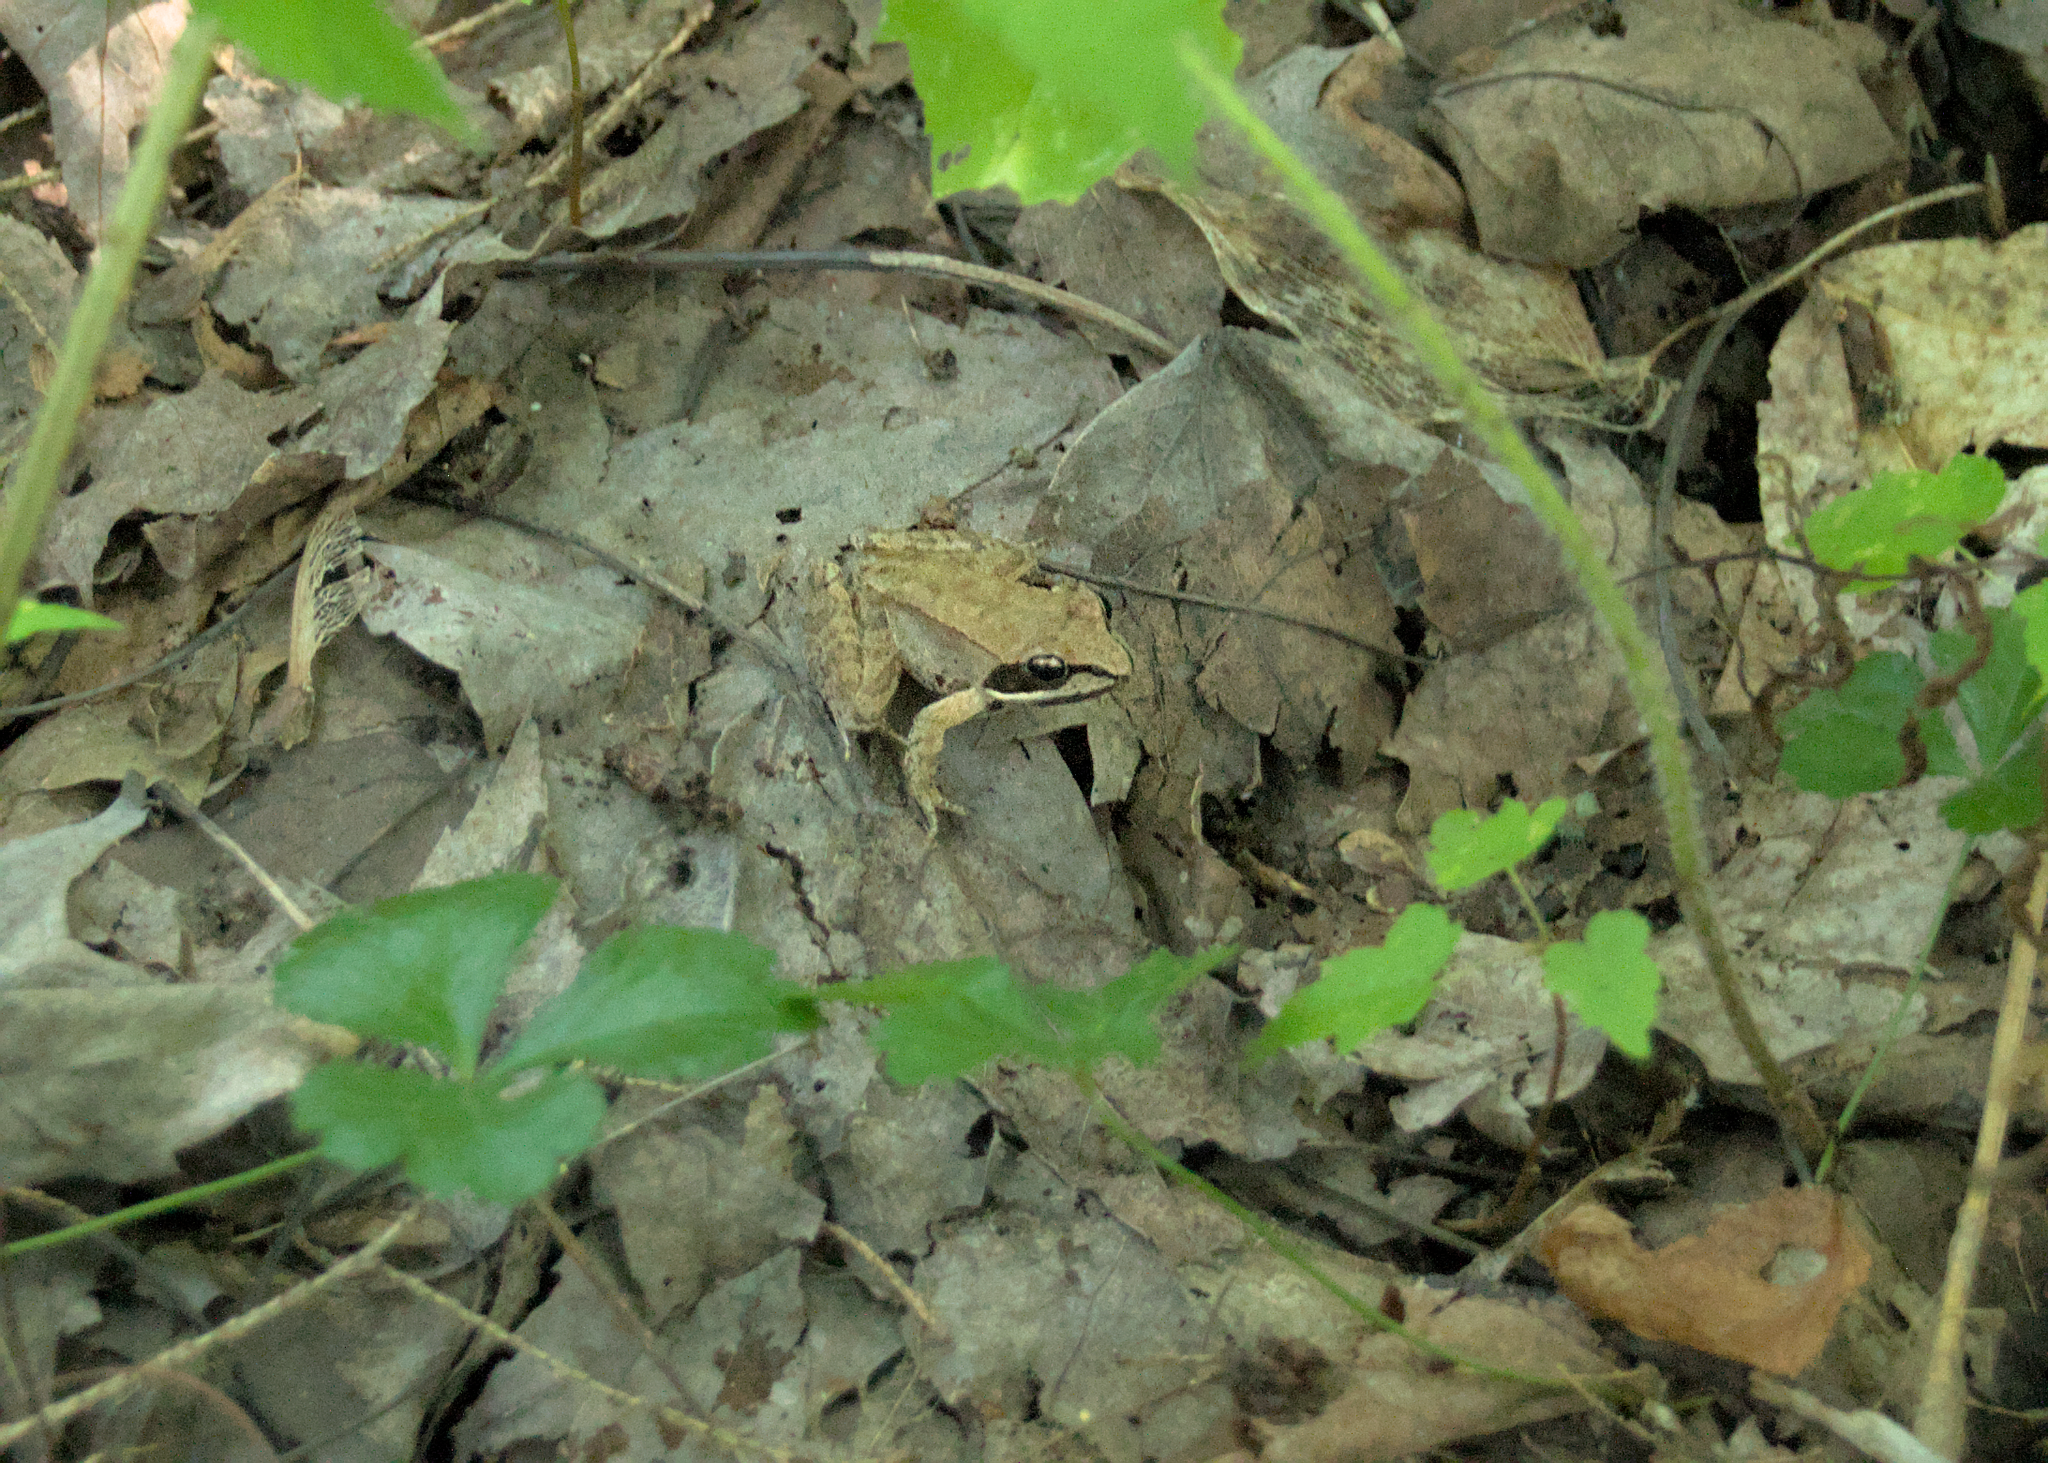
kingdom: Animalia
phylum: Chordata
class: Amphibia
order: Anura
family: Ranidae
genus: Lithobates
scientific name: Lithobates sylvaticus
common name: Wood frog
